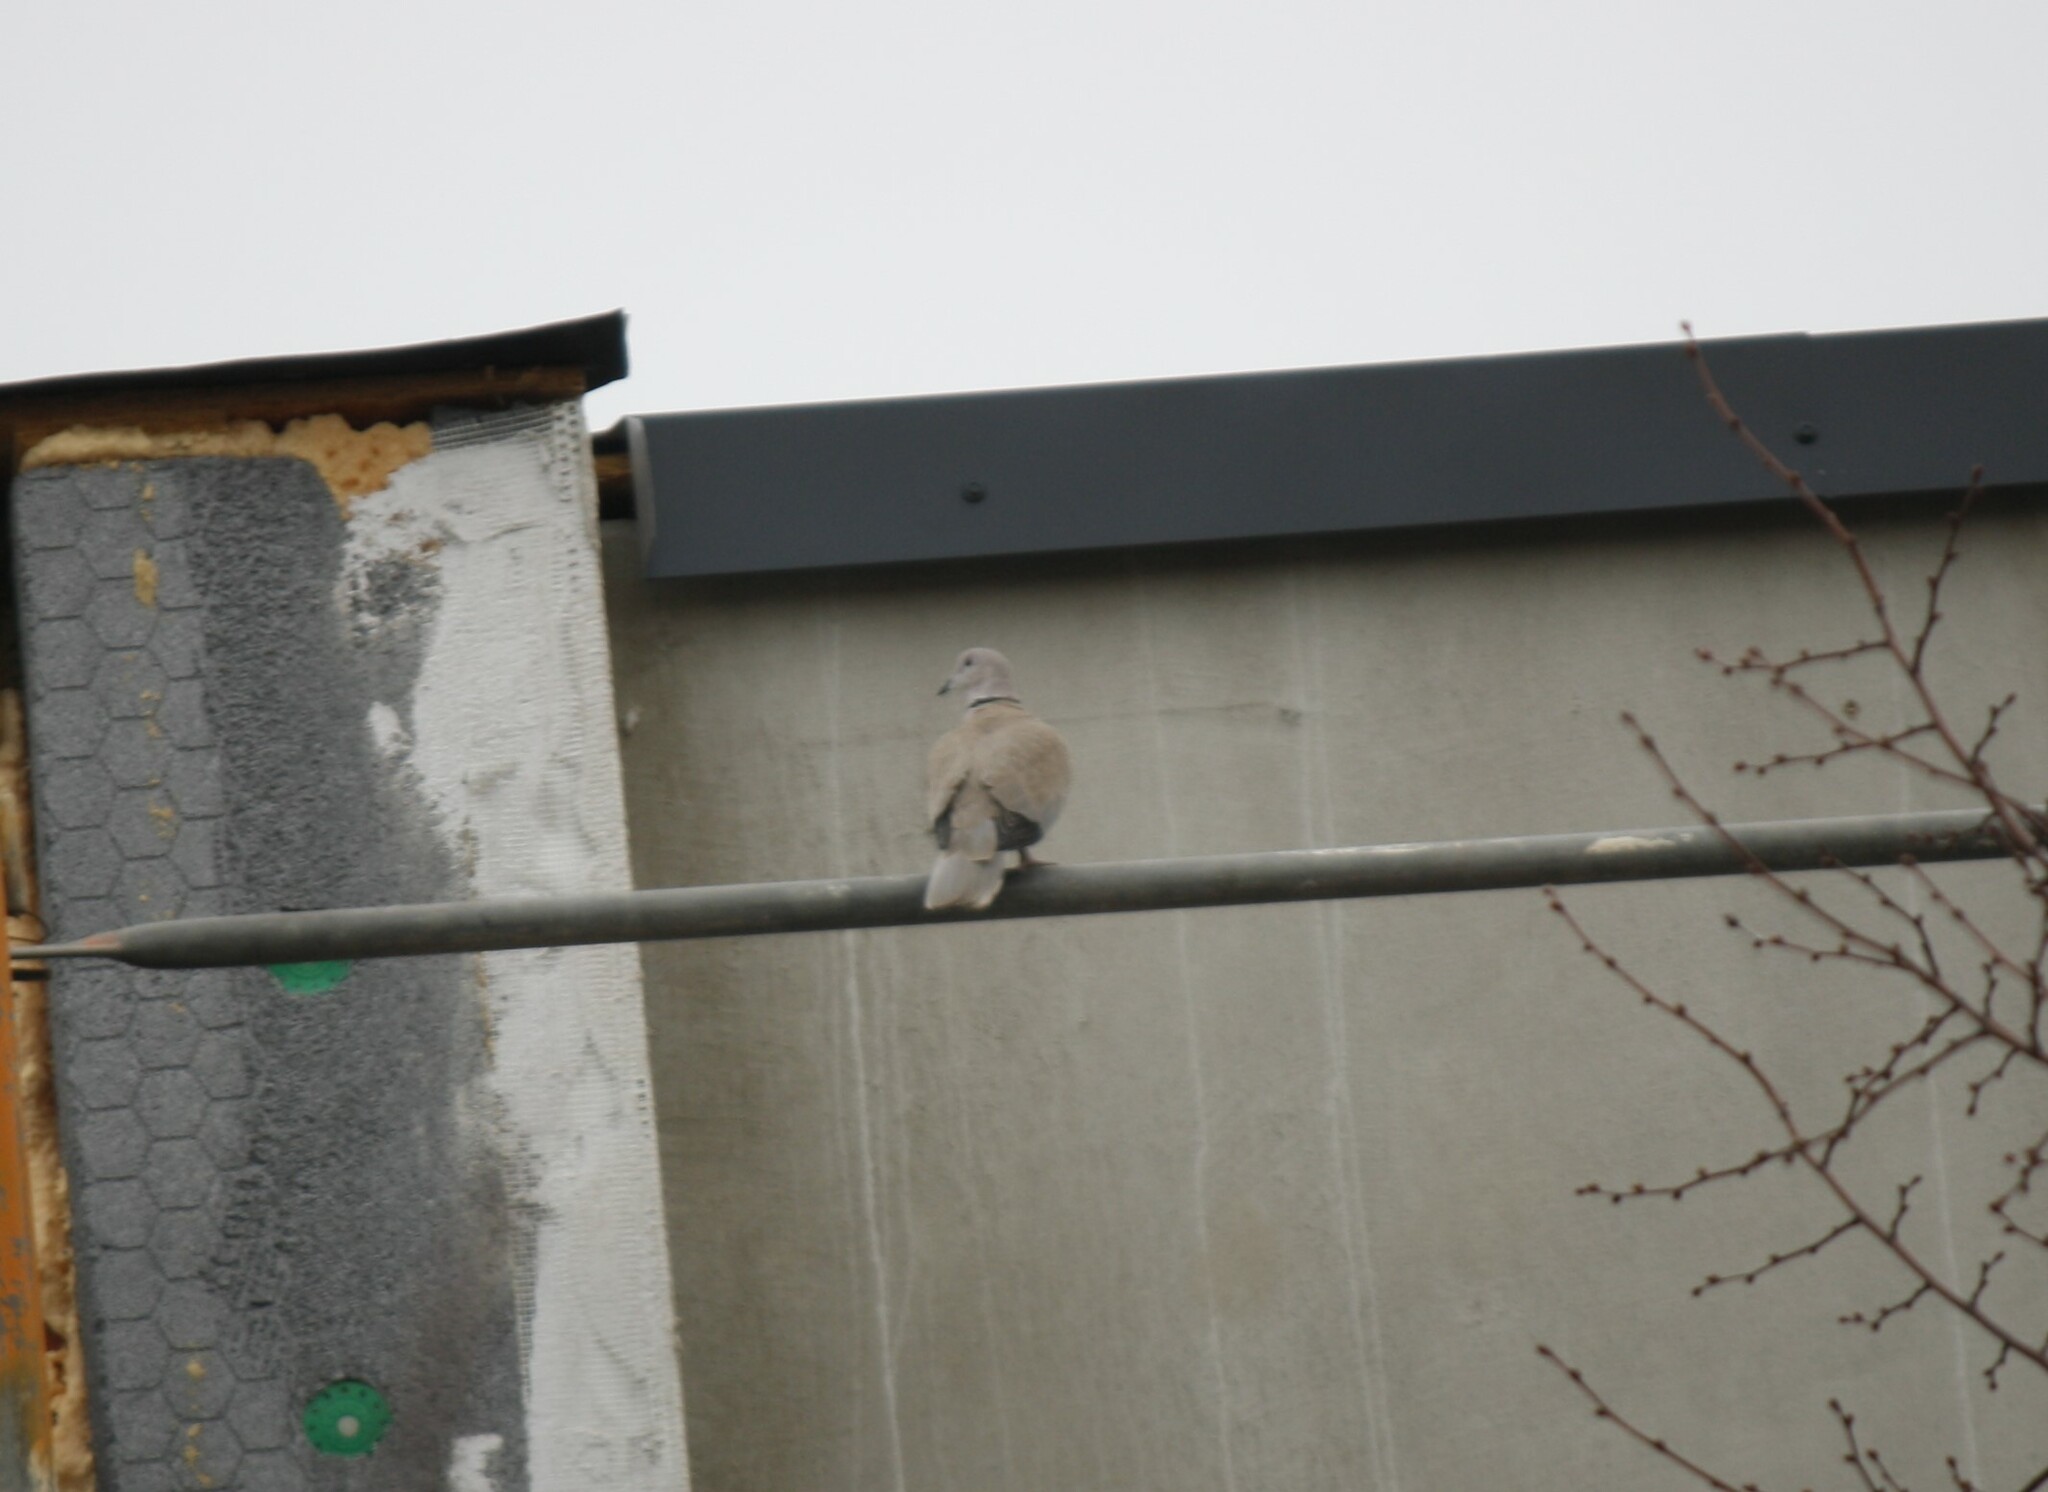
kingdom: Animalia
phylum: Chordata
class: Aves
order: Columbiformes
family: Columbidae
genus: Streptopelia
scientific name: Streptopelia decaocto
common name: Eurasian collared dove
